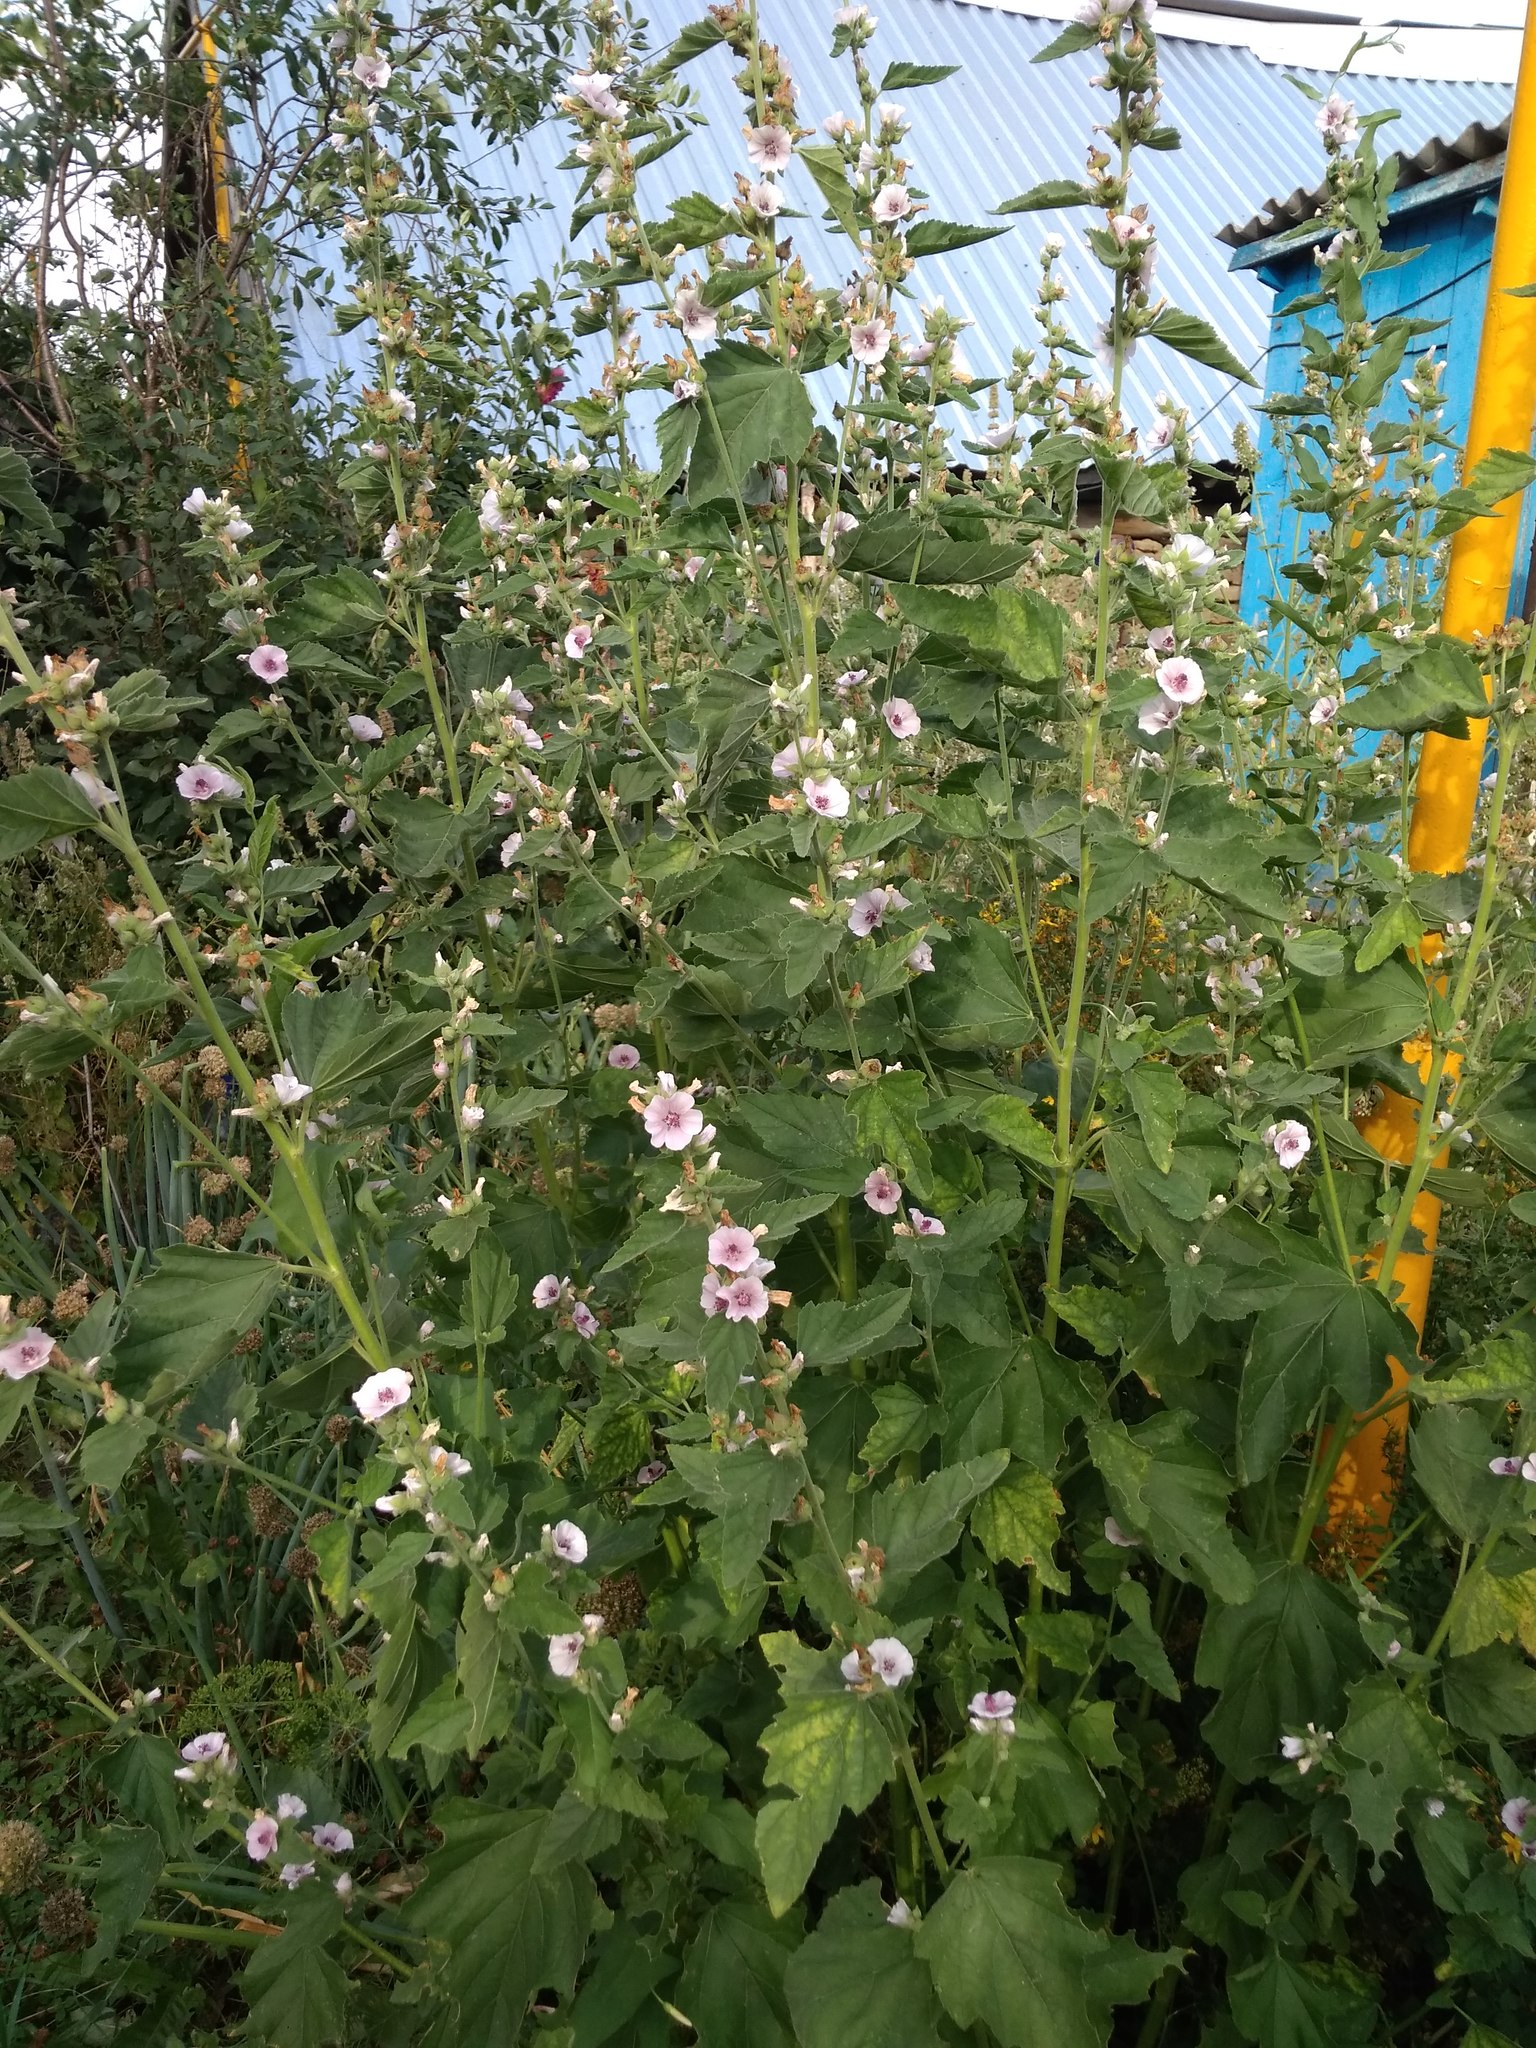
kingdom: Plantae
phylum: Tracheophyta
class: Magnoliopsida
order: Malvales
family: Malvaceae
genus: Althaea
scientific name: Althaea officinalis
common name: Marsh-mallow
